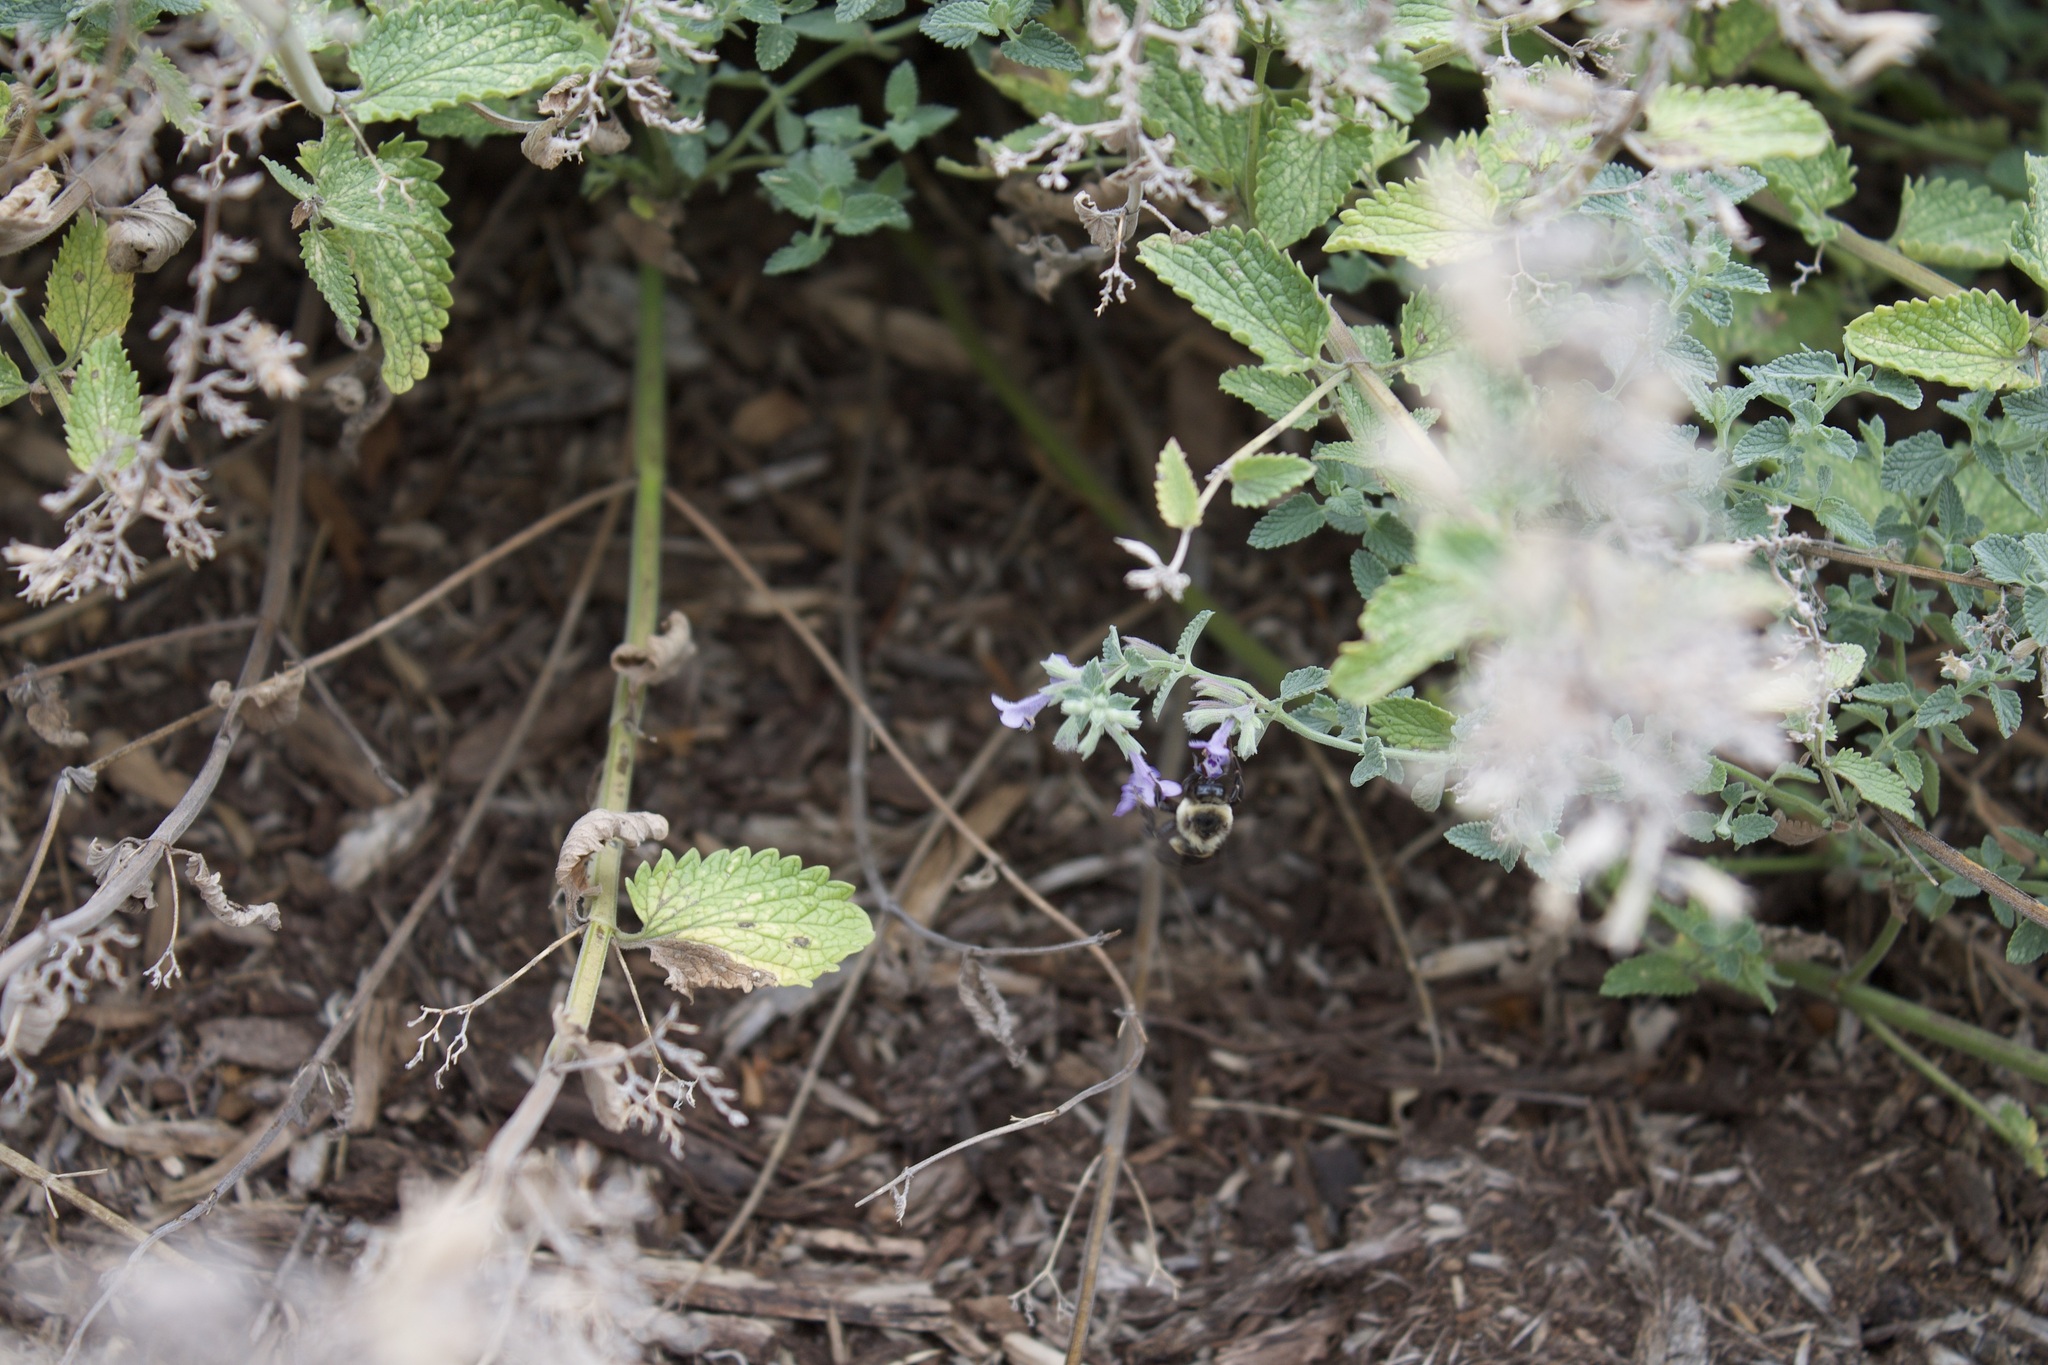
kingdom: Animalia
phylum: Arthropoda
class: Insecta
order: Hymenoptera
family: Apidae
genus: Bombus
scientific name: Bombus impatiens
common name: Common eastern bumble bee
